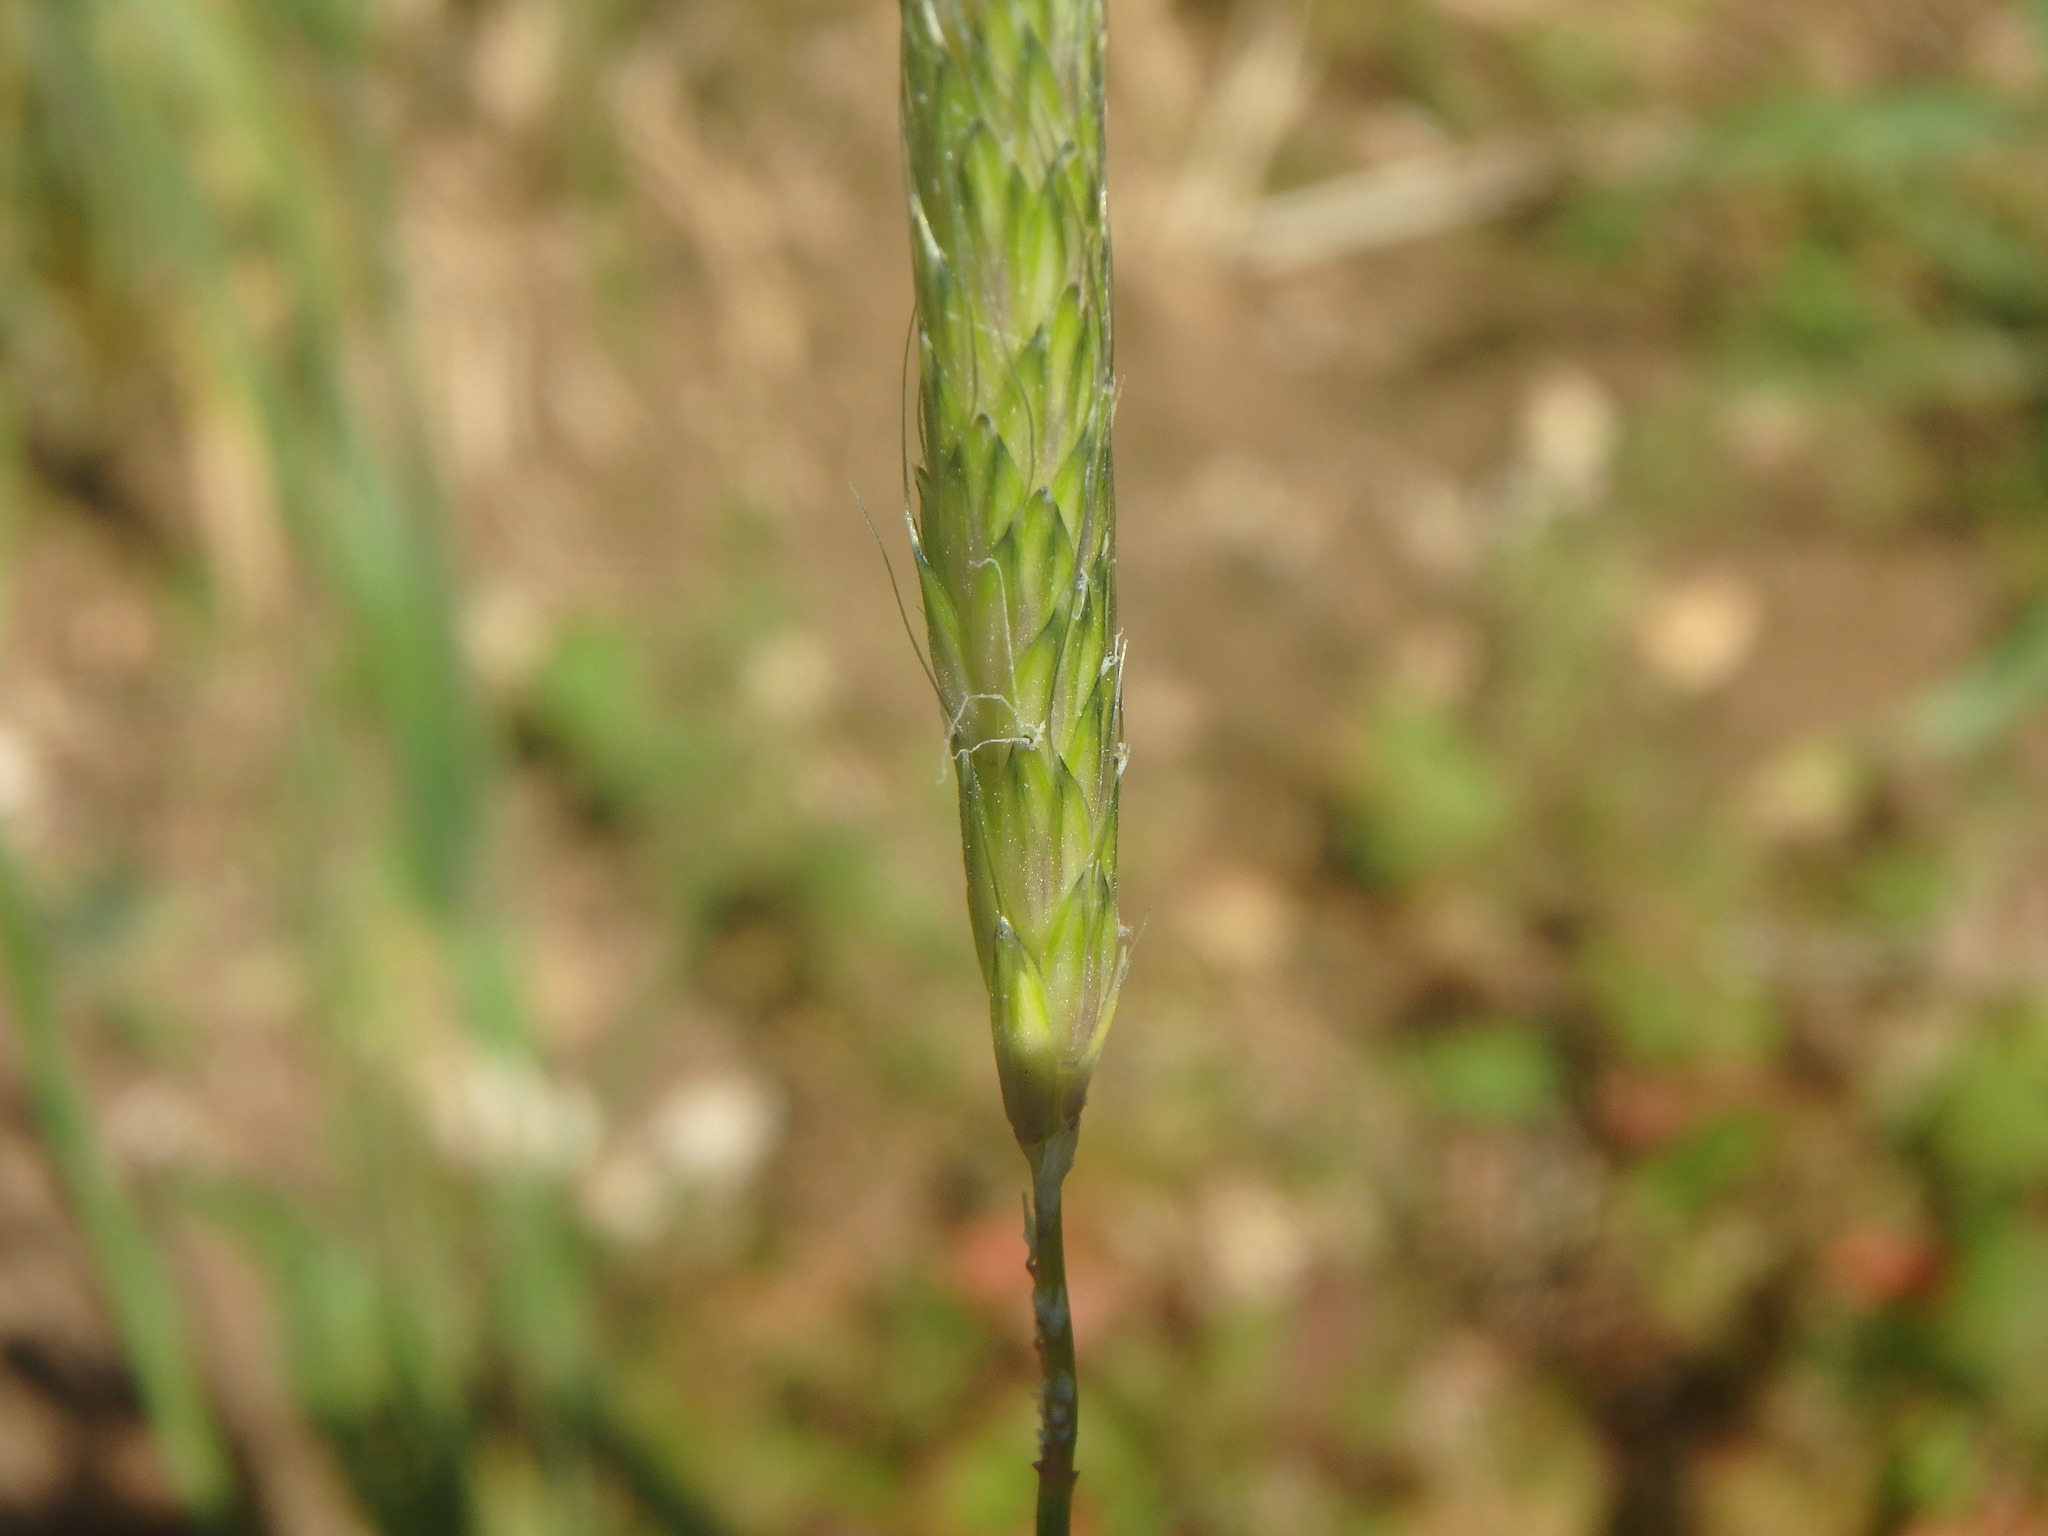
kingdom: Plantae
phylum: Tracheophyta
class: Liliopsida
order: Poales
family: Poaceae
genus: Alopecurus
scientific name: Alopecurus myosuroides
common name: Black-grass
